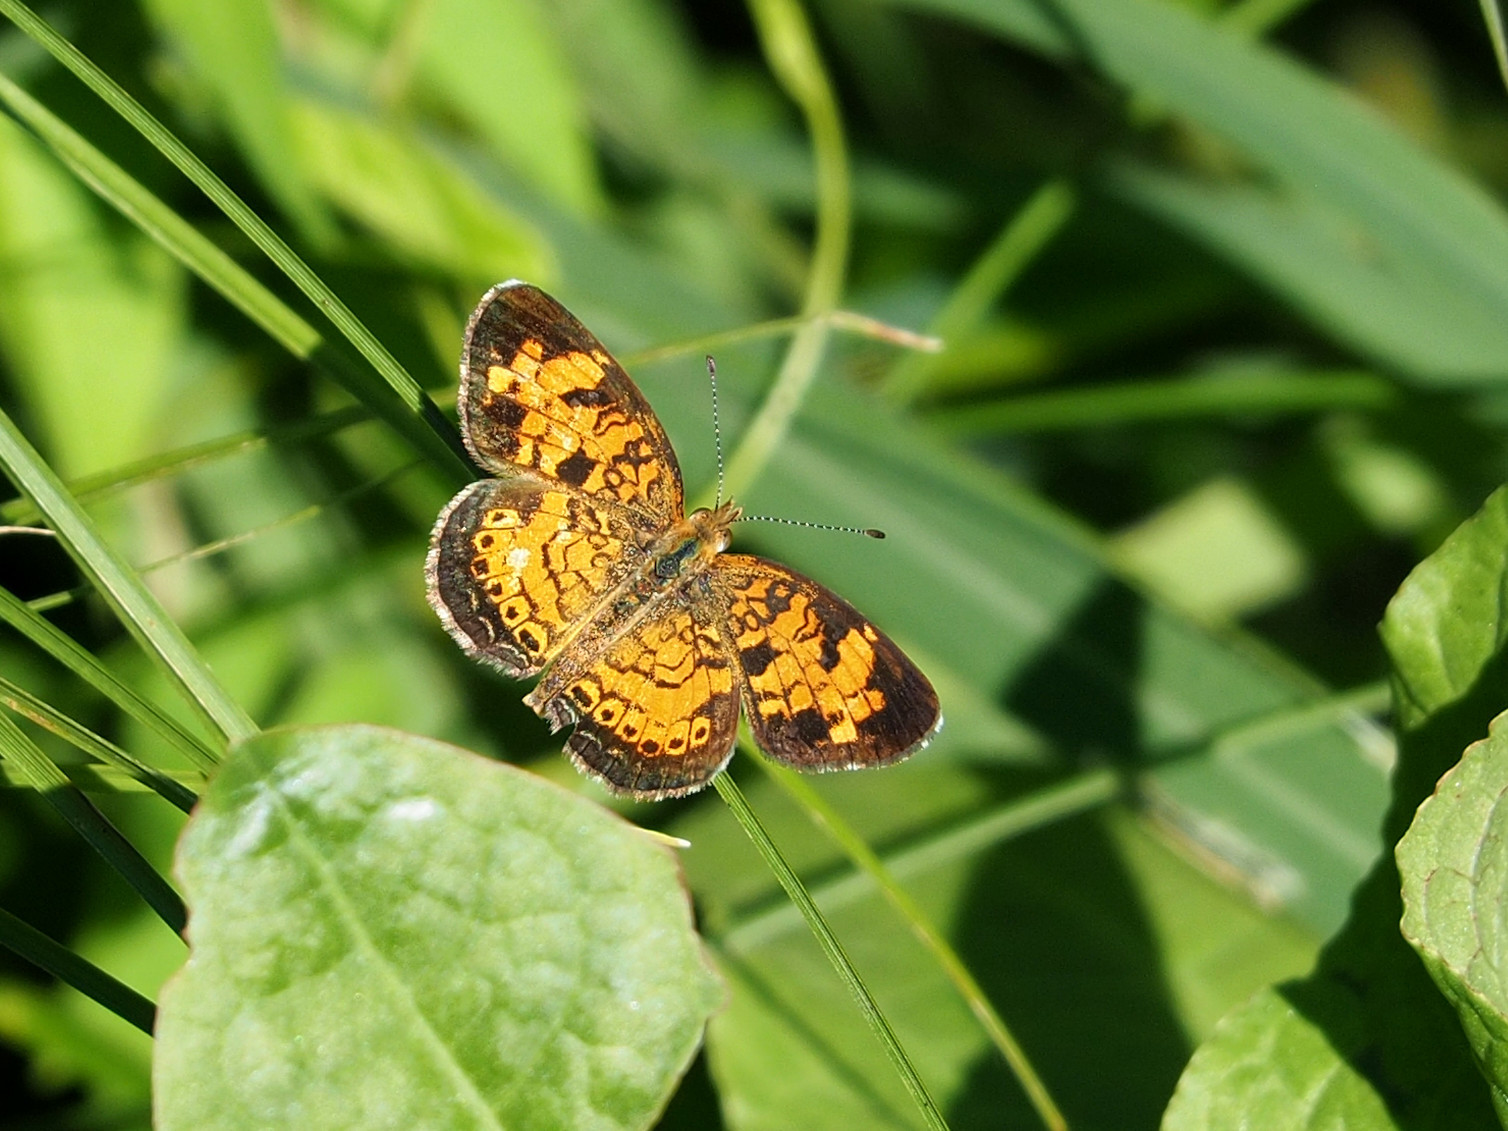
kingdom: Animalia
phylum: Arthropoda
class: Insecta
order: Lepidoptera
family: Nymphalidae
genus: Phyciodes
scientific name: Phyciodes tharos
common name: Pearl crescent
